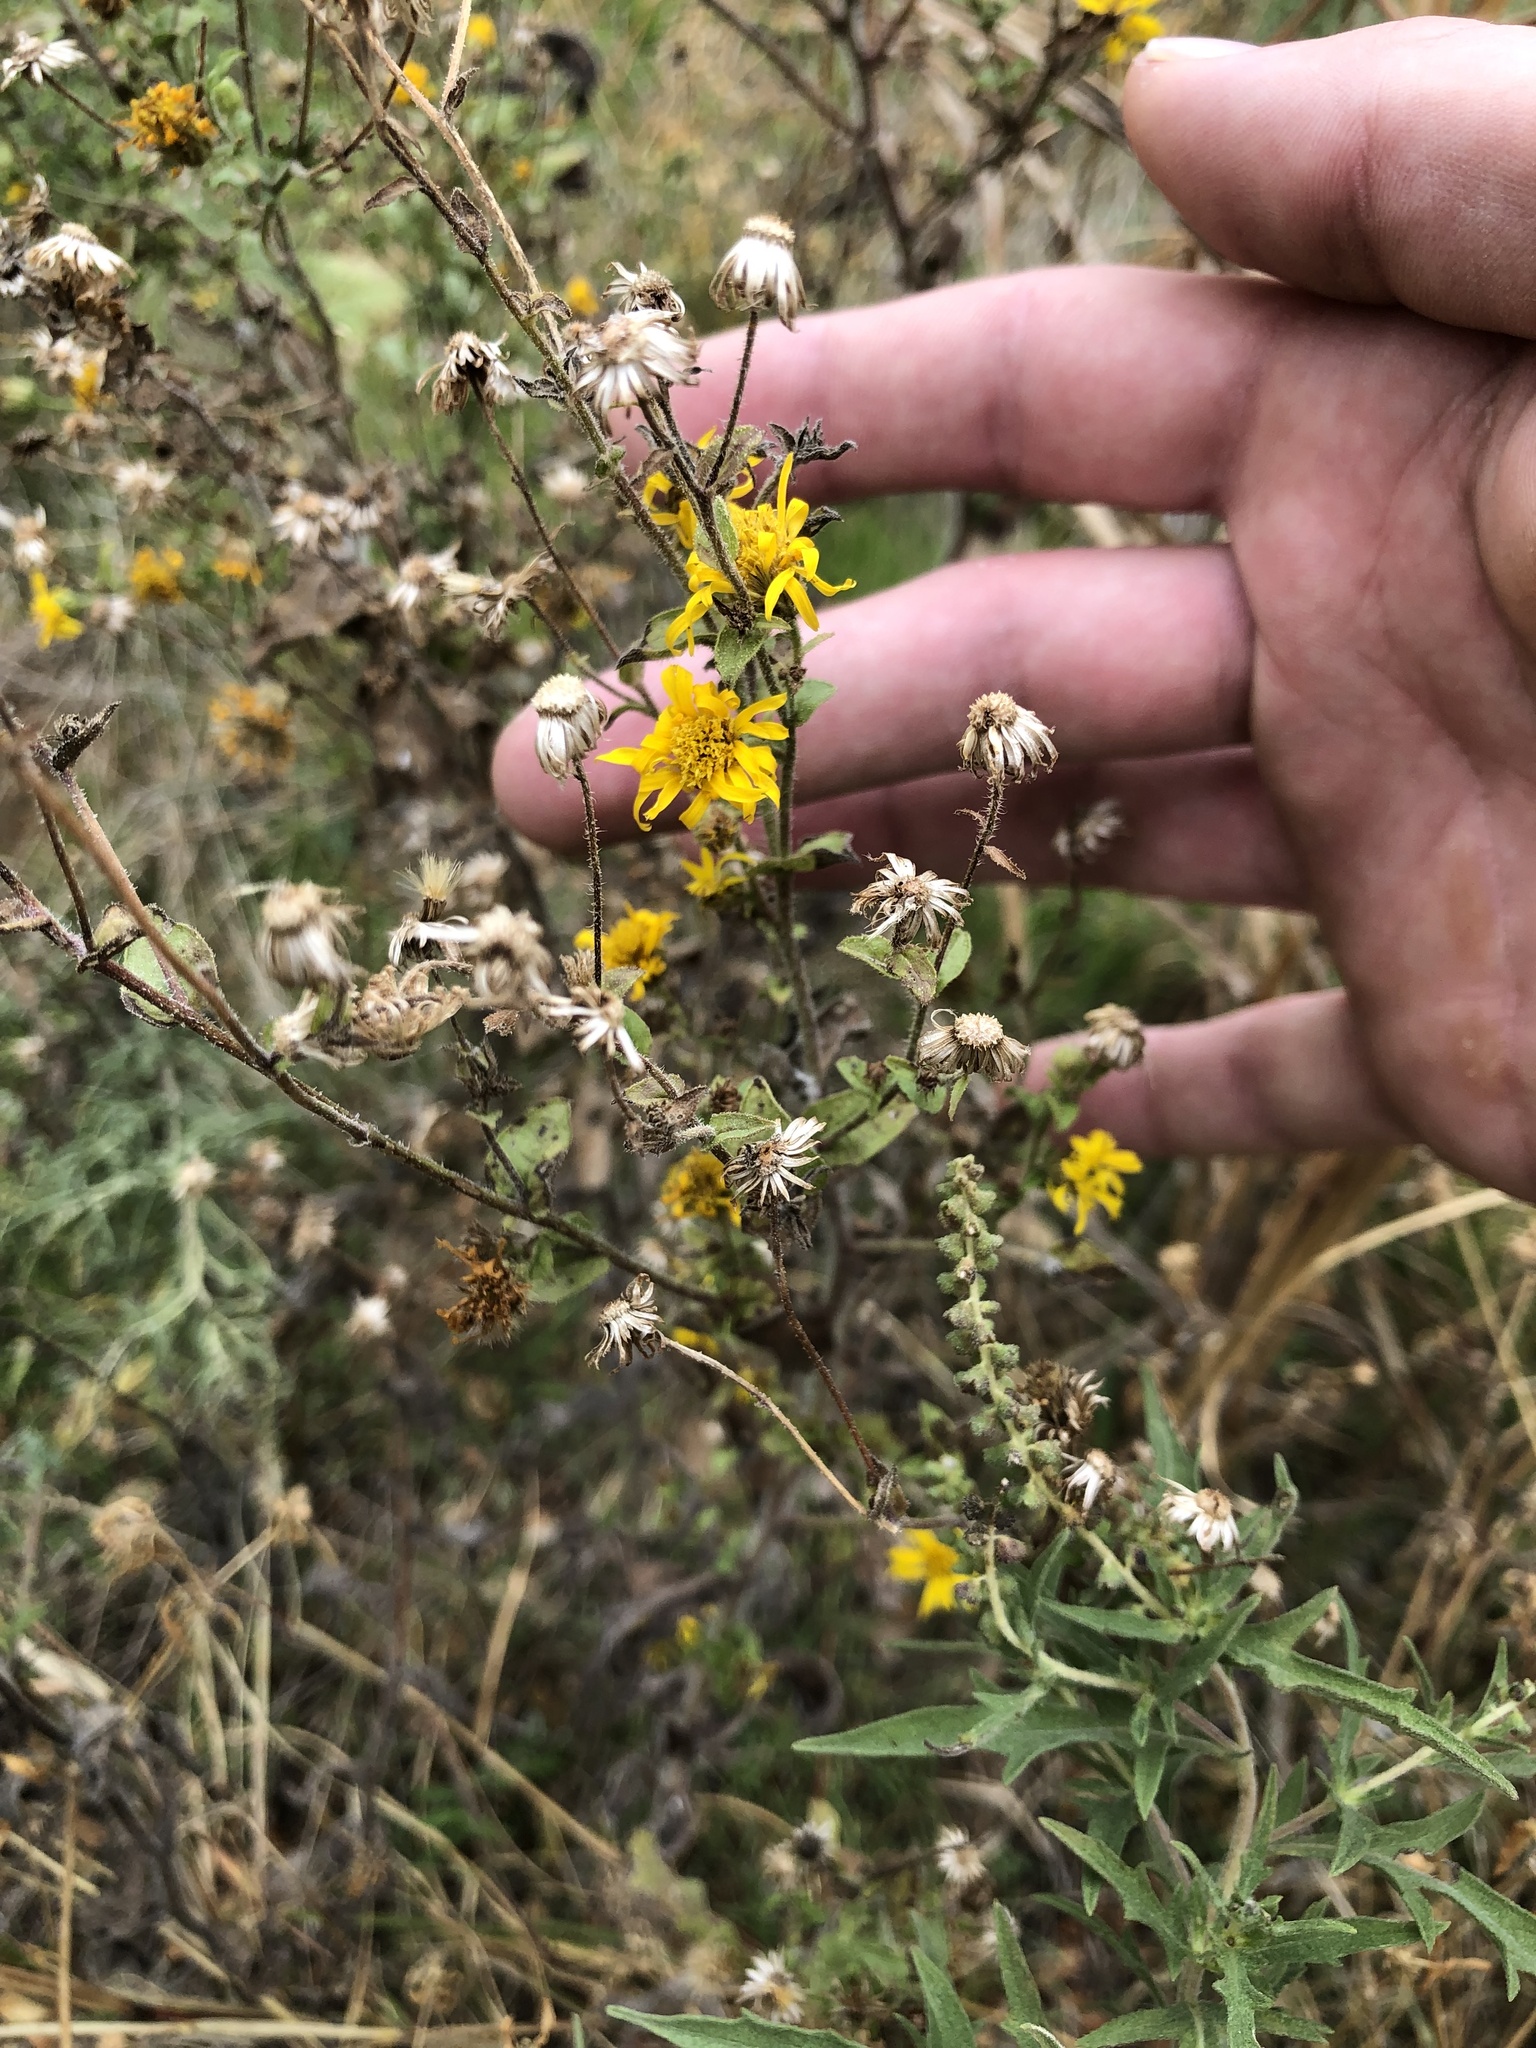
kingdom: Plantae
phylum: Tracheophyta
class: Magnoliopsida
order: Asterales
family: Asteraceae
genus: Heterotheca
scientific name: Heterotheca subaxillaris
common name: Camphorweed
